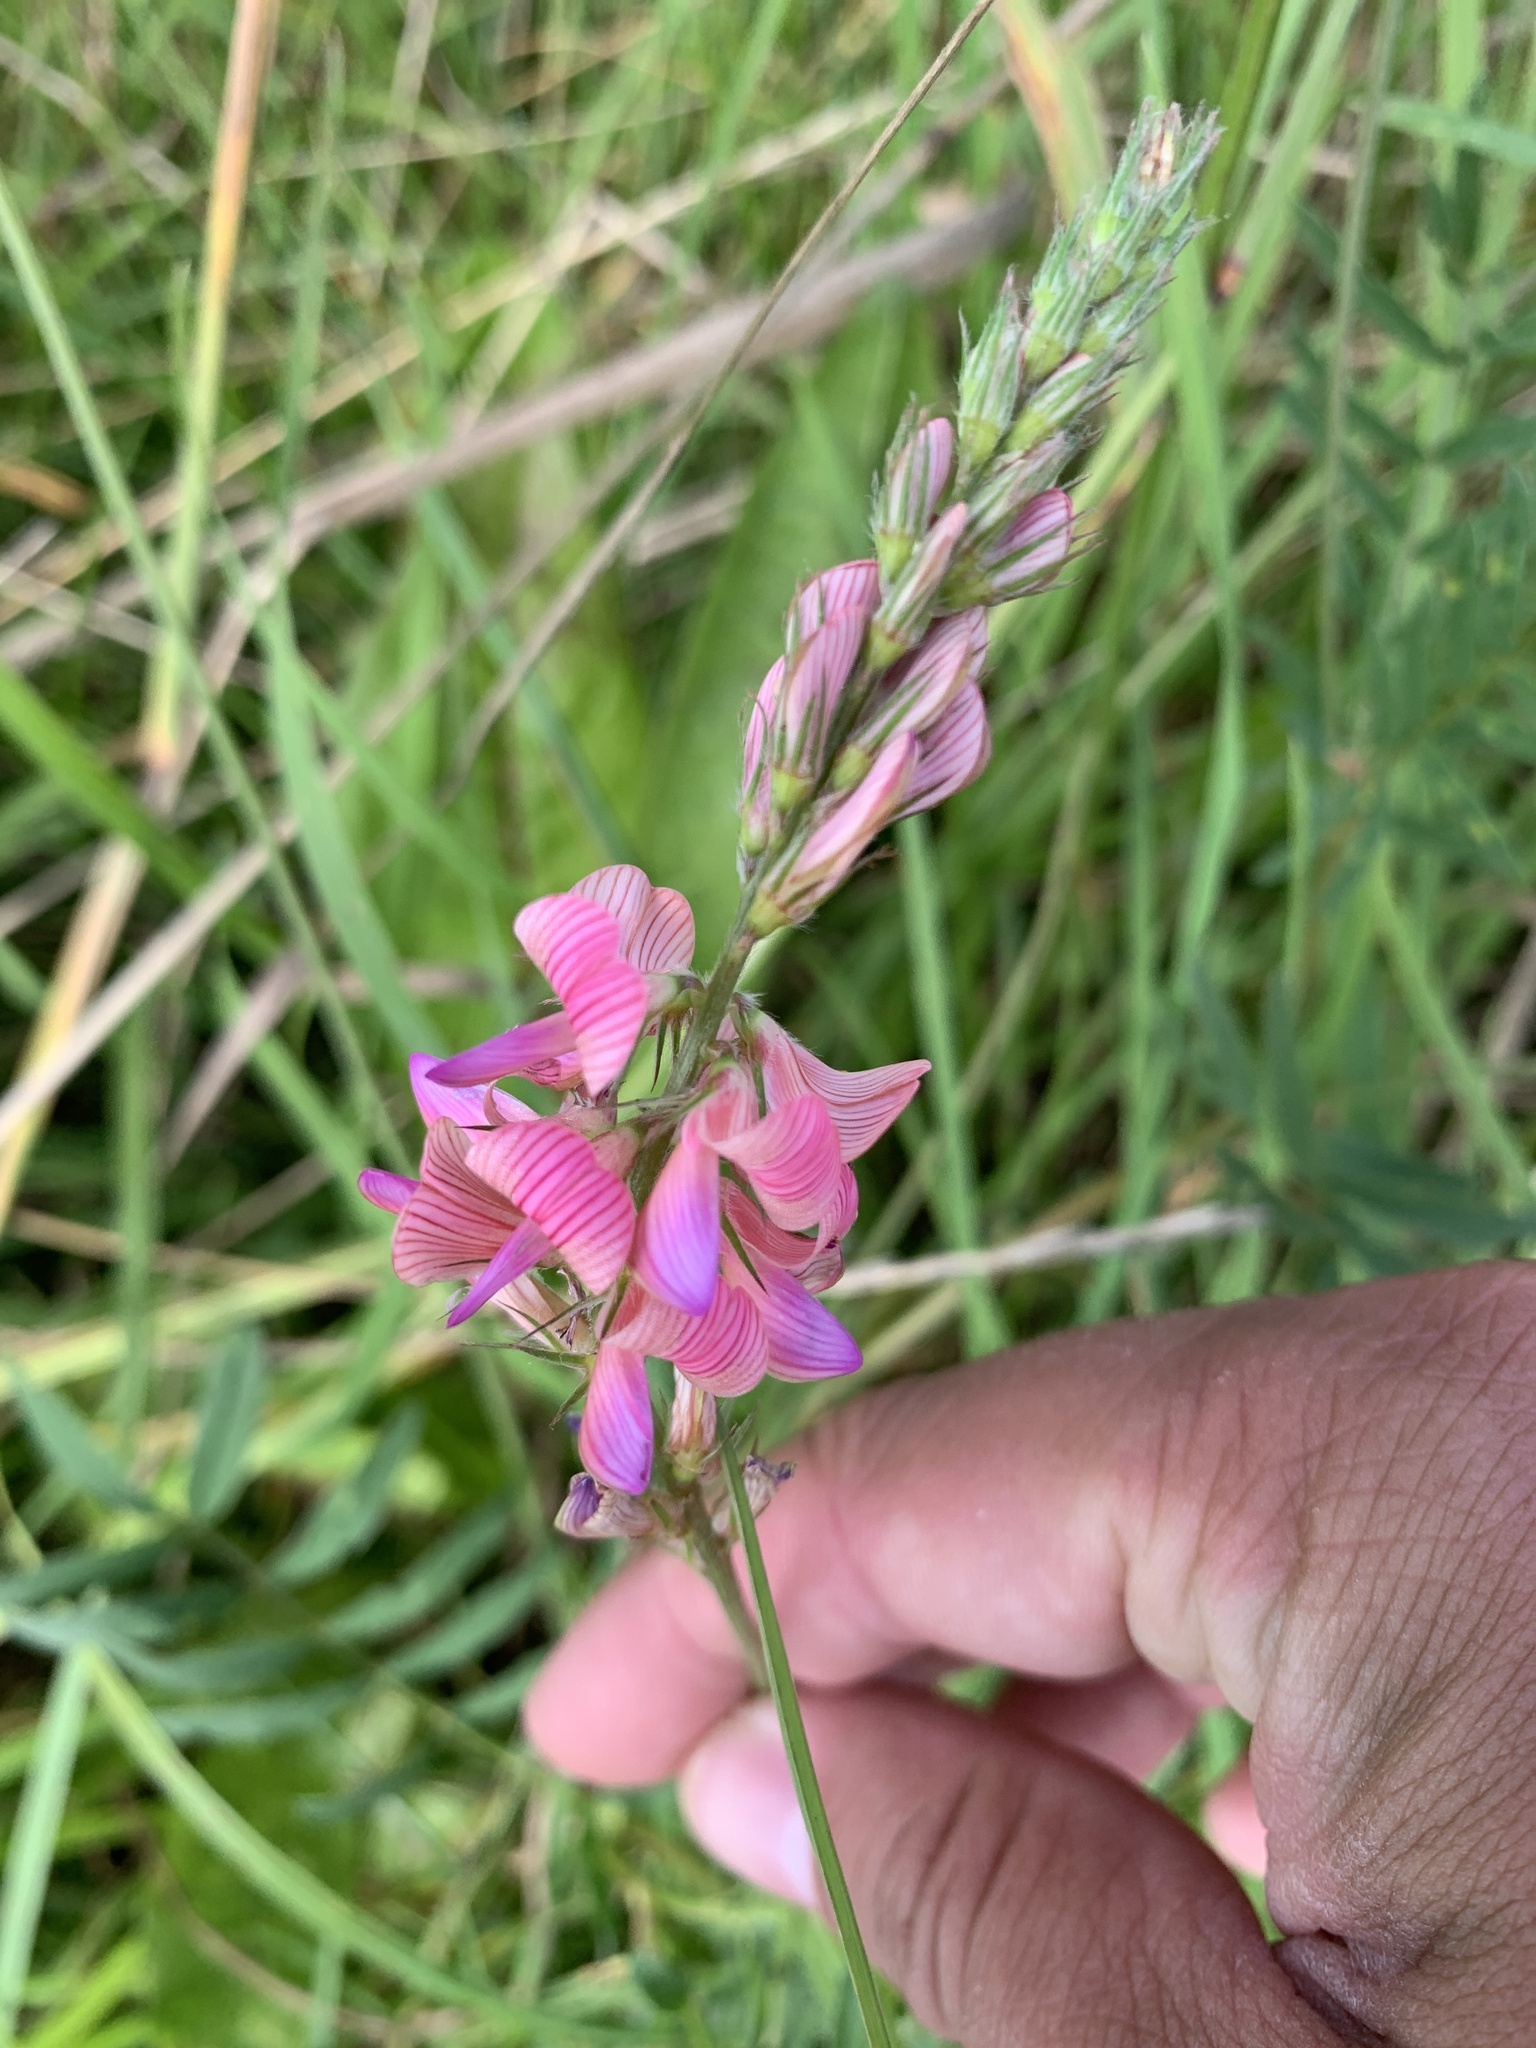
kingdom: Plantae
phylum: Tracheophyta
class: Magnoliopsida
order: Fabales
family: Fabaceae
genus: Onobrychis
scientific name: Onobrychis viciifolia
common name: Sainfoin
